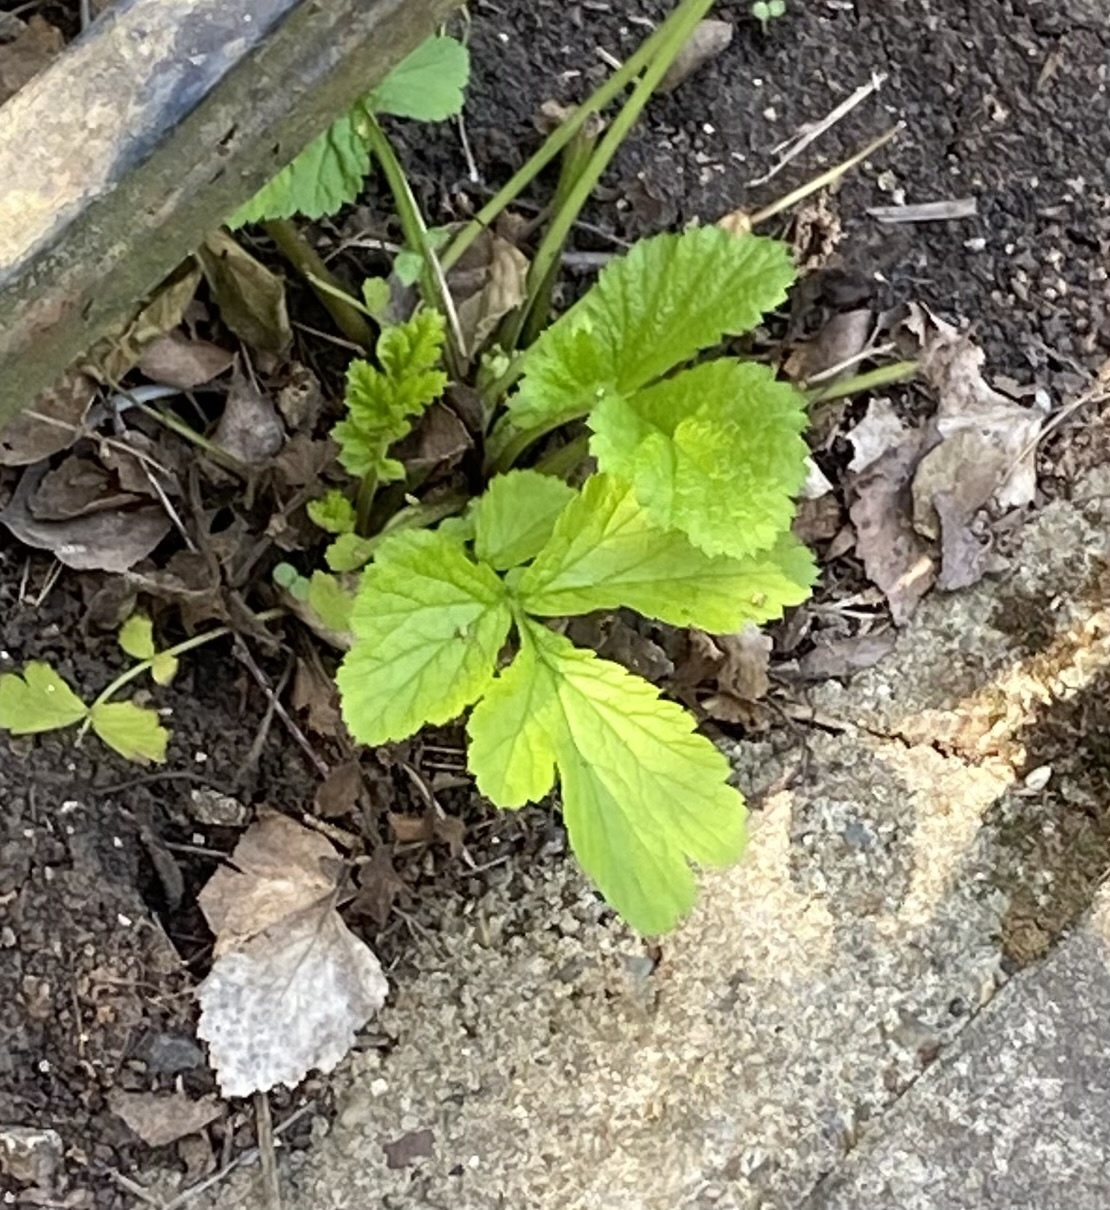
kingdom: Plantae
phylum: Tracheophyta
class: Magnoliopsida
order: Rosales
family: Rosaceae
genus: Geum
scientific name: Geum urbanum
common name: Wood avens
